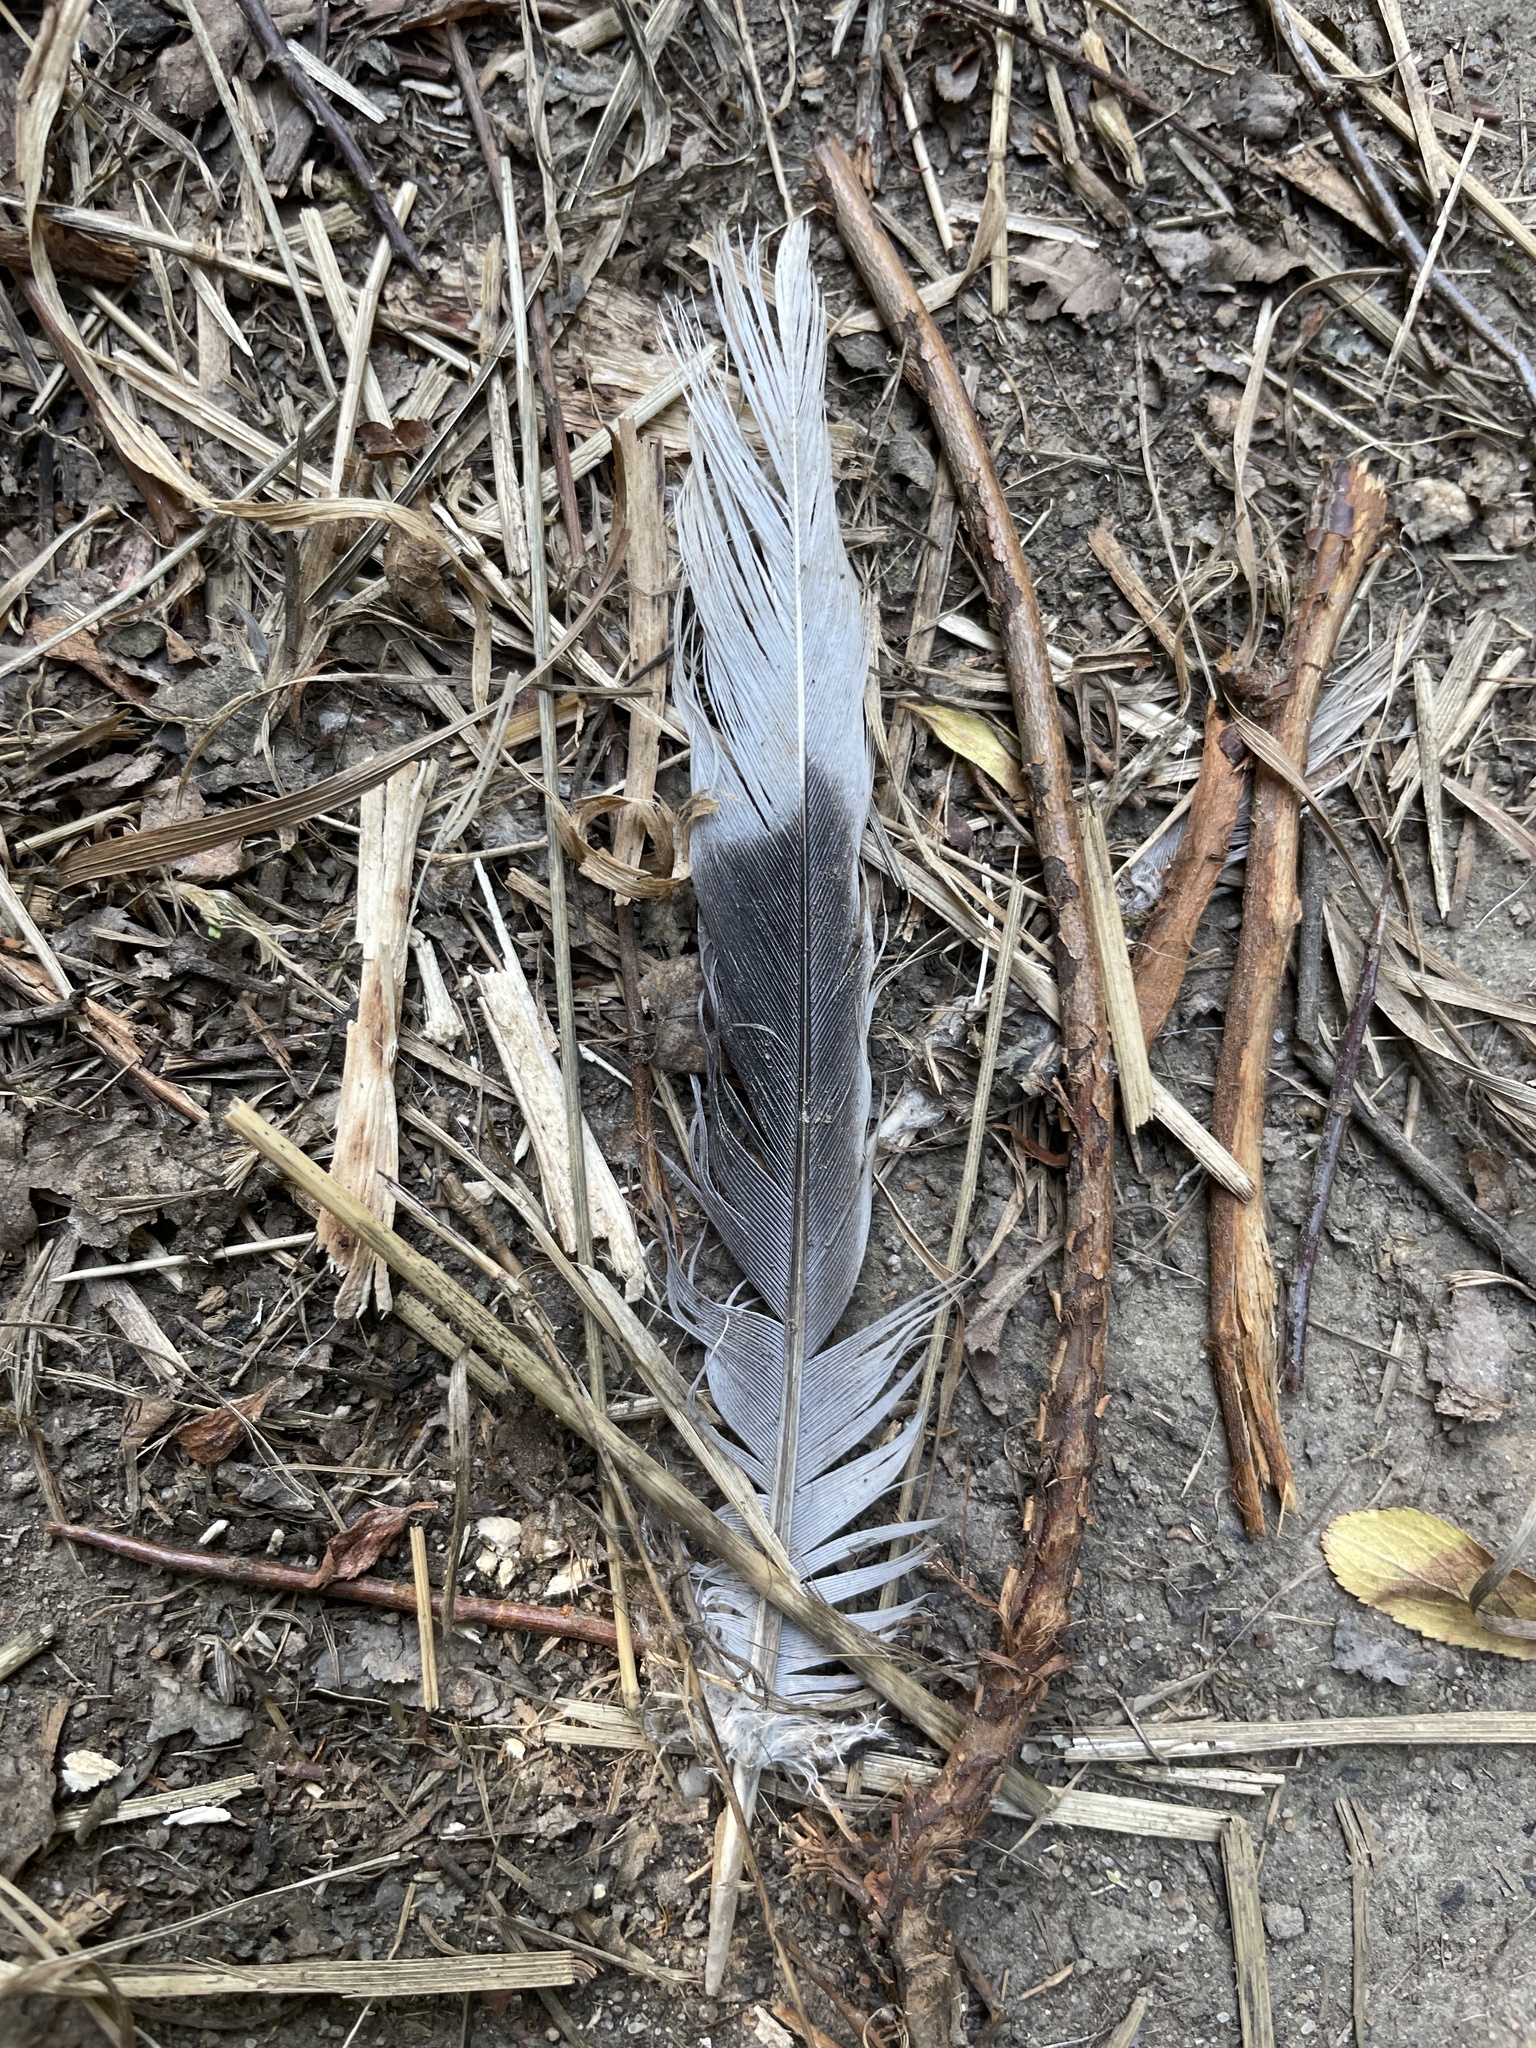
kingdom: Animalia
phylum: Chordata
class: Aves
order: Columbiformes
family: Columbidae
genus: Streptopelia
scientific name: Streptopelia decaocto
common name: Eurasian collared dove
